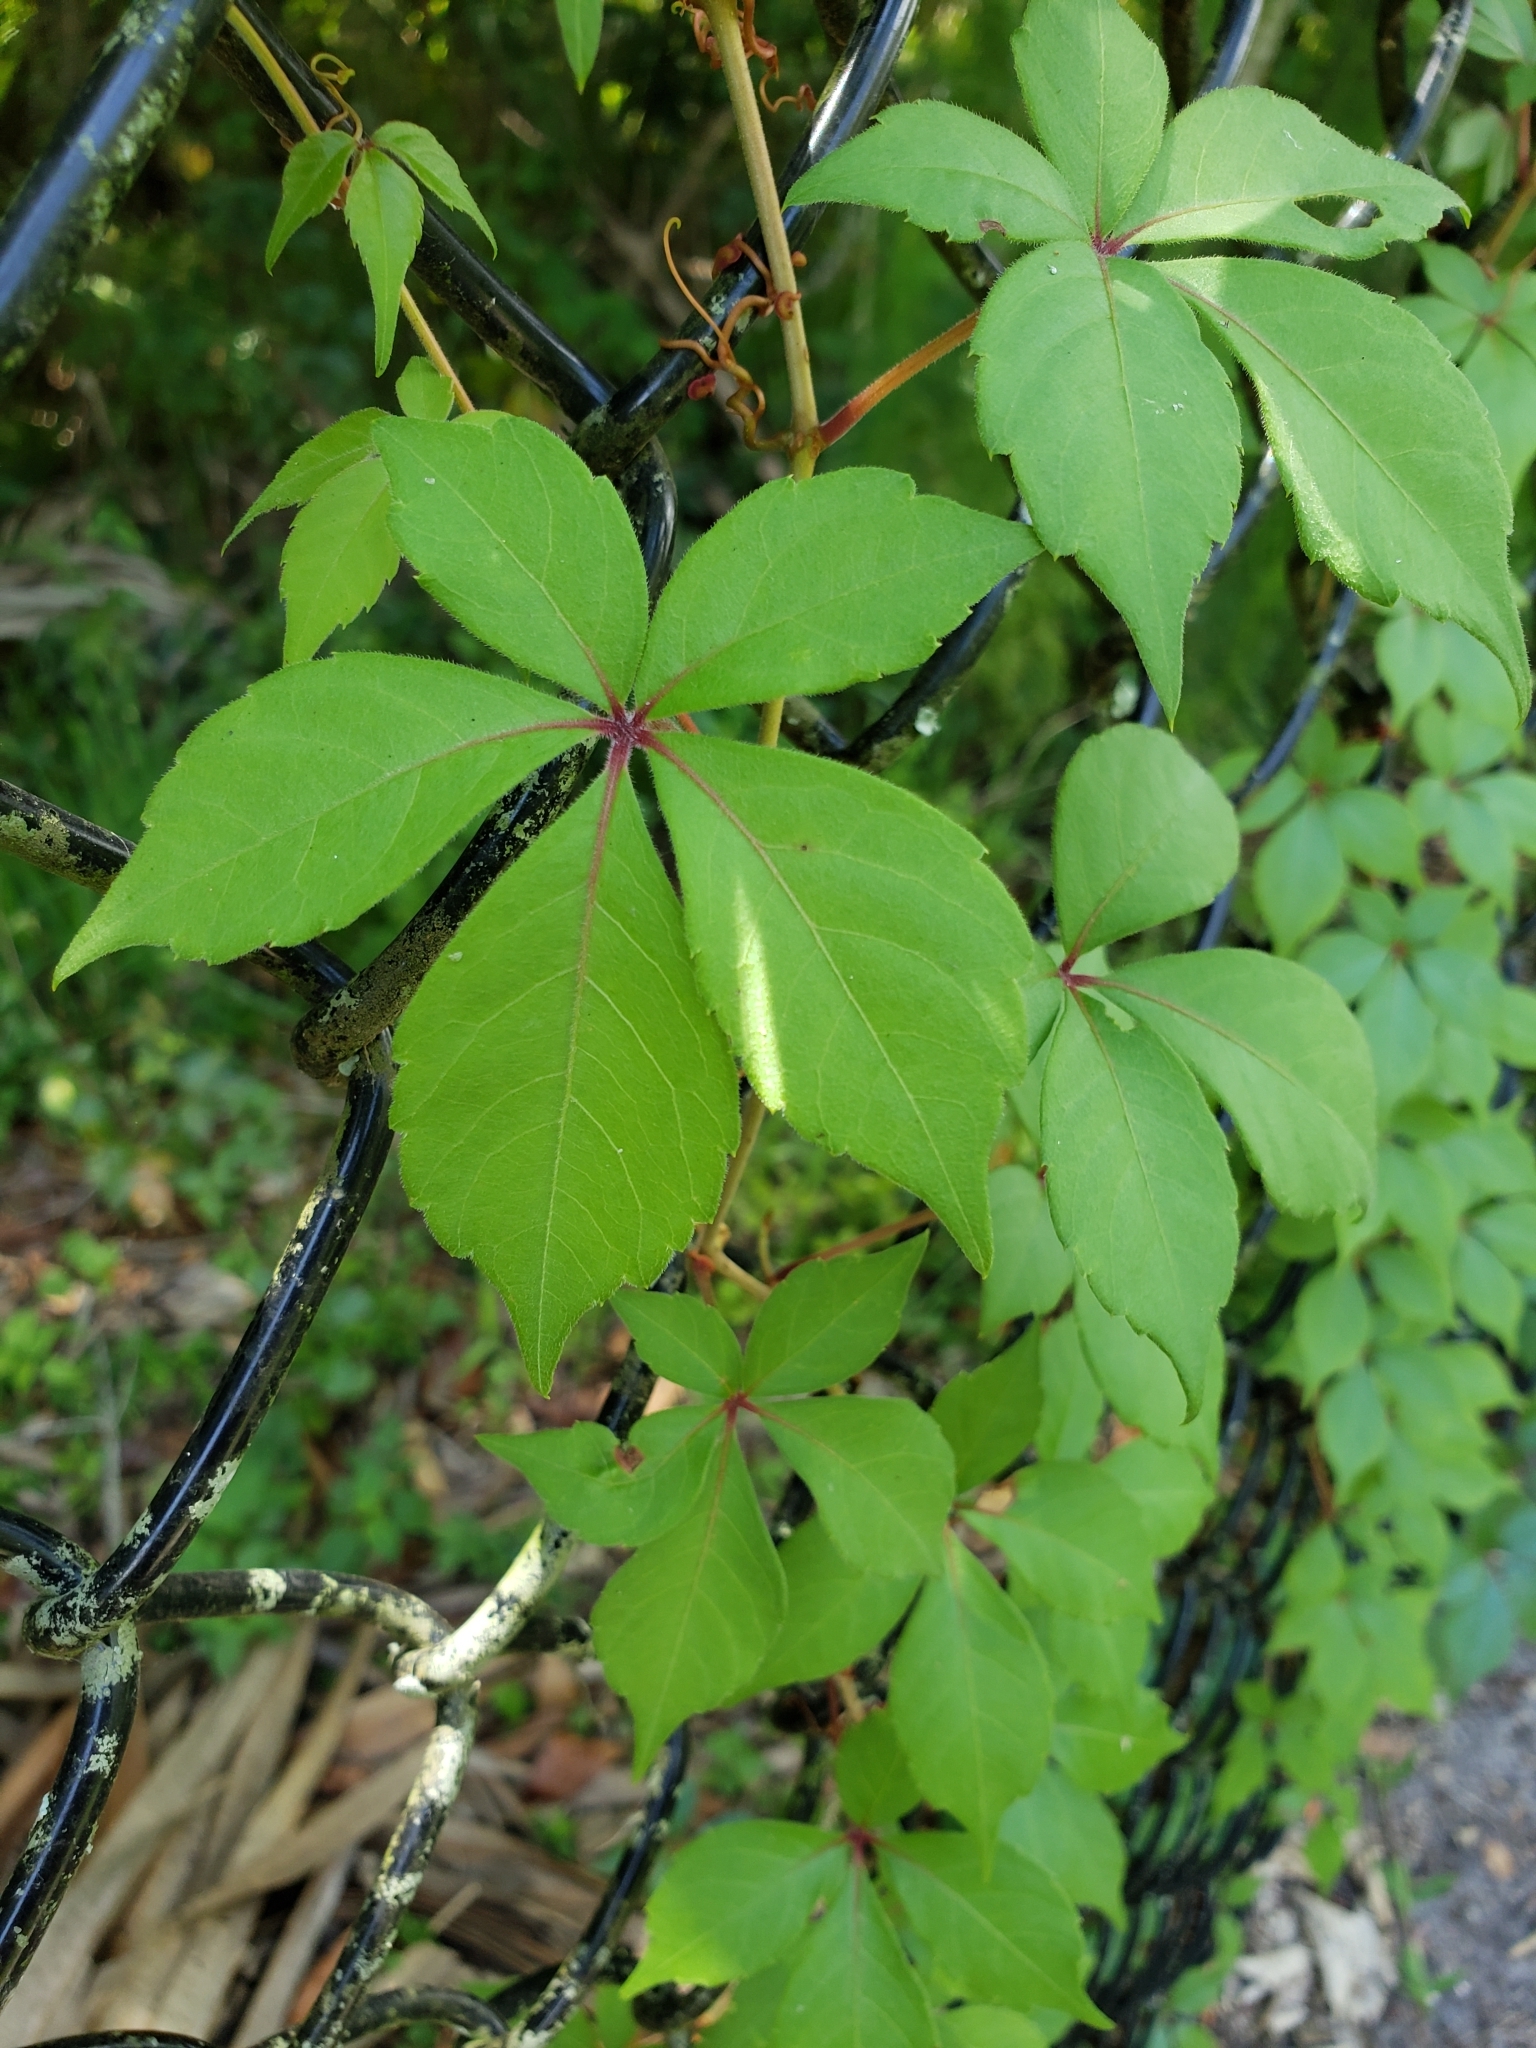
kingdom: Plantae
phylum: Tracheophyta
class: Magnoliopsida
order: Vitales
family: Vitaceae
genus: Parthenocissus
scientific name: Parthenocissus quinquefolia
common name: Virginia-creeper
